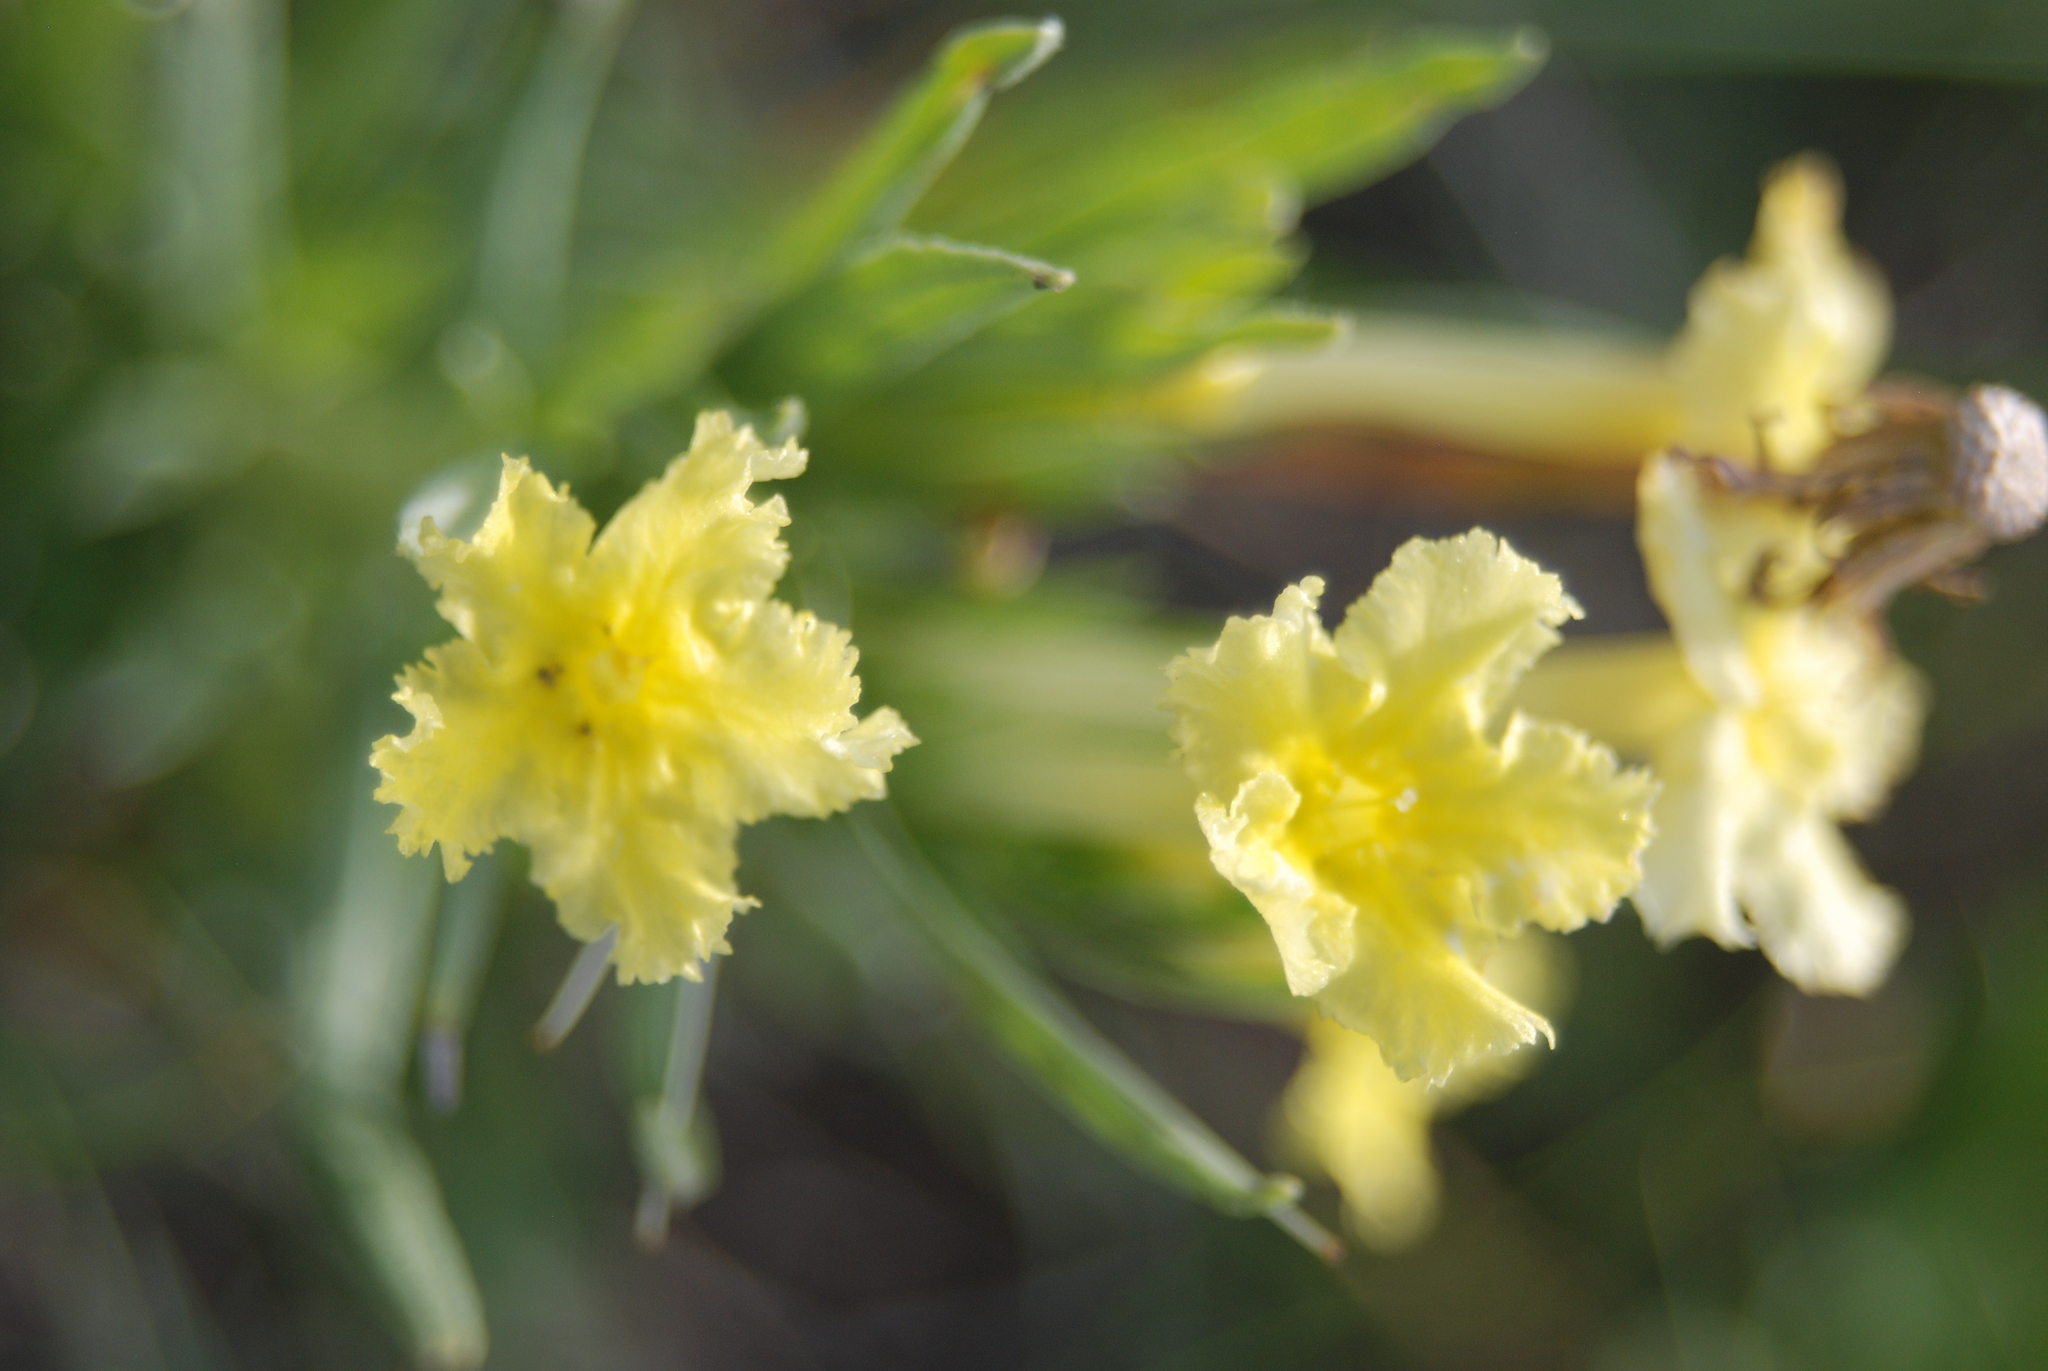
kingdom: Plantae
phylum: Tracheophyta
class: Magnoliopsida
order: Boraginales
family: Boraginaceae
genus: Lithospermum
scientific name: Lithospermum incisum
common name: Fringed gromwell
